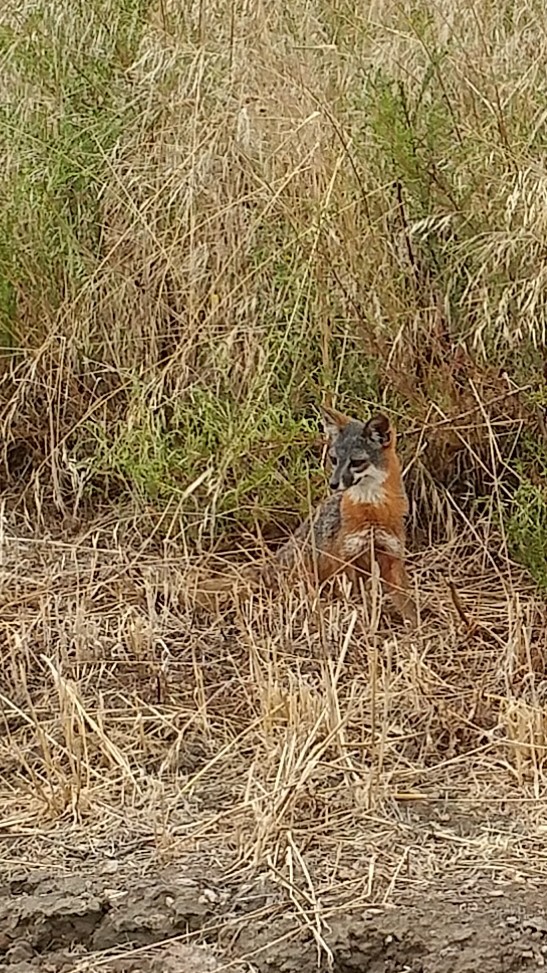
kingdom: Animalia
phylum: Chordata
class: Mammalia
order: Carnivora
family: Canidae
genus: Urocyon
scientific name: Urocyon littoralis
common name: Island gray fox
